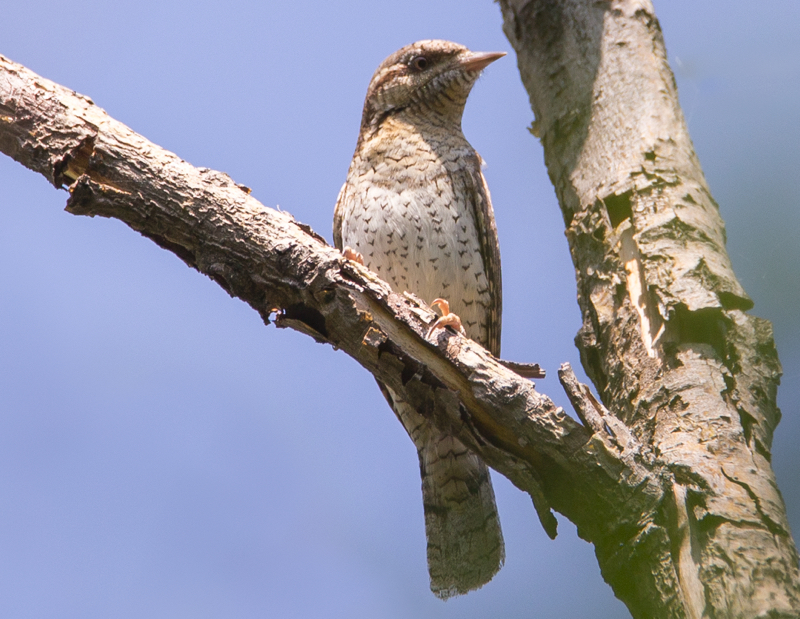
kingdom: Animalia
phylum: Chordata
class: Aves
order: Piciformes
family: Picidae
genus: Jynx
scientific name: Jynx torquilla
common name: Eurasian wryneck
